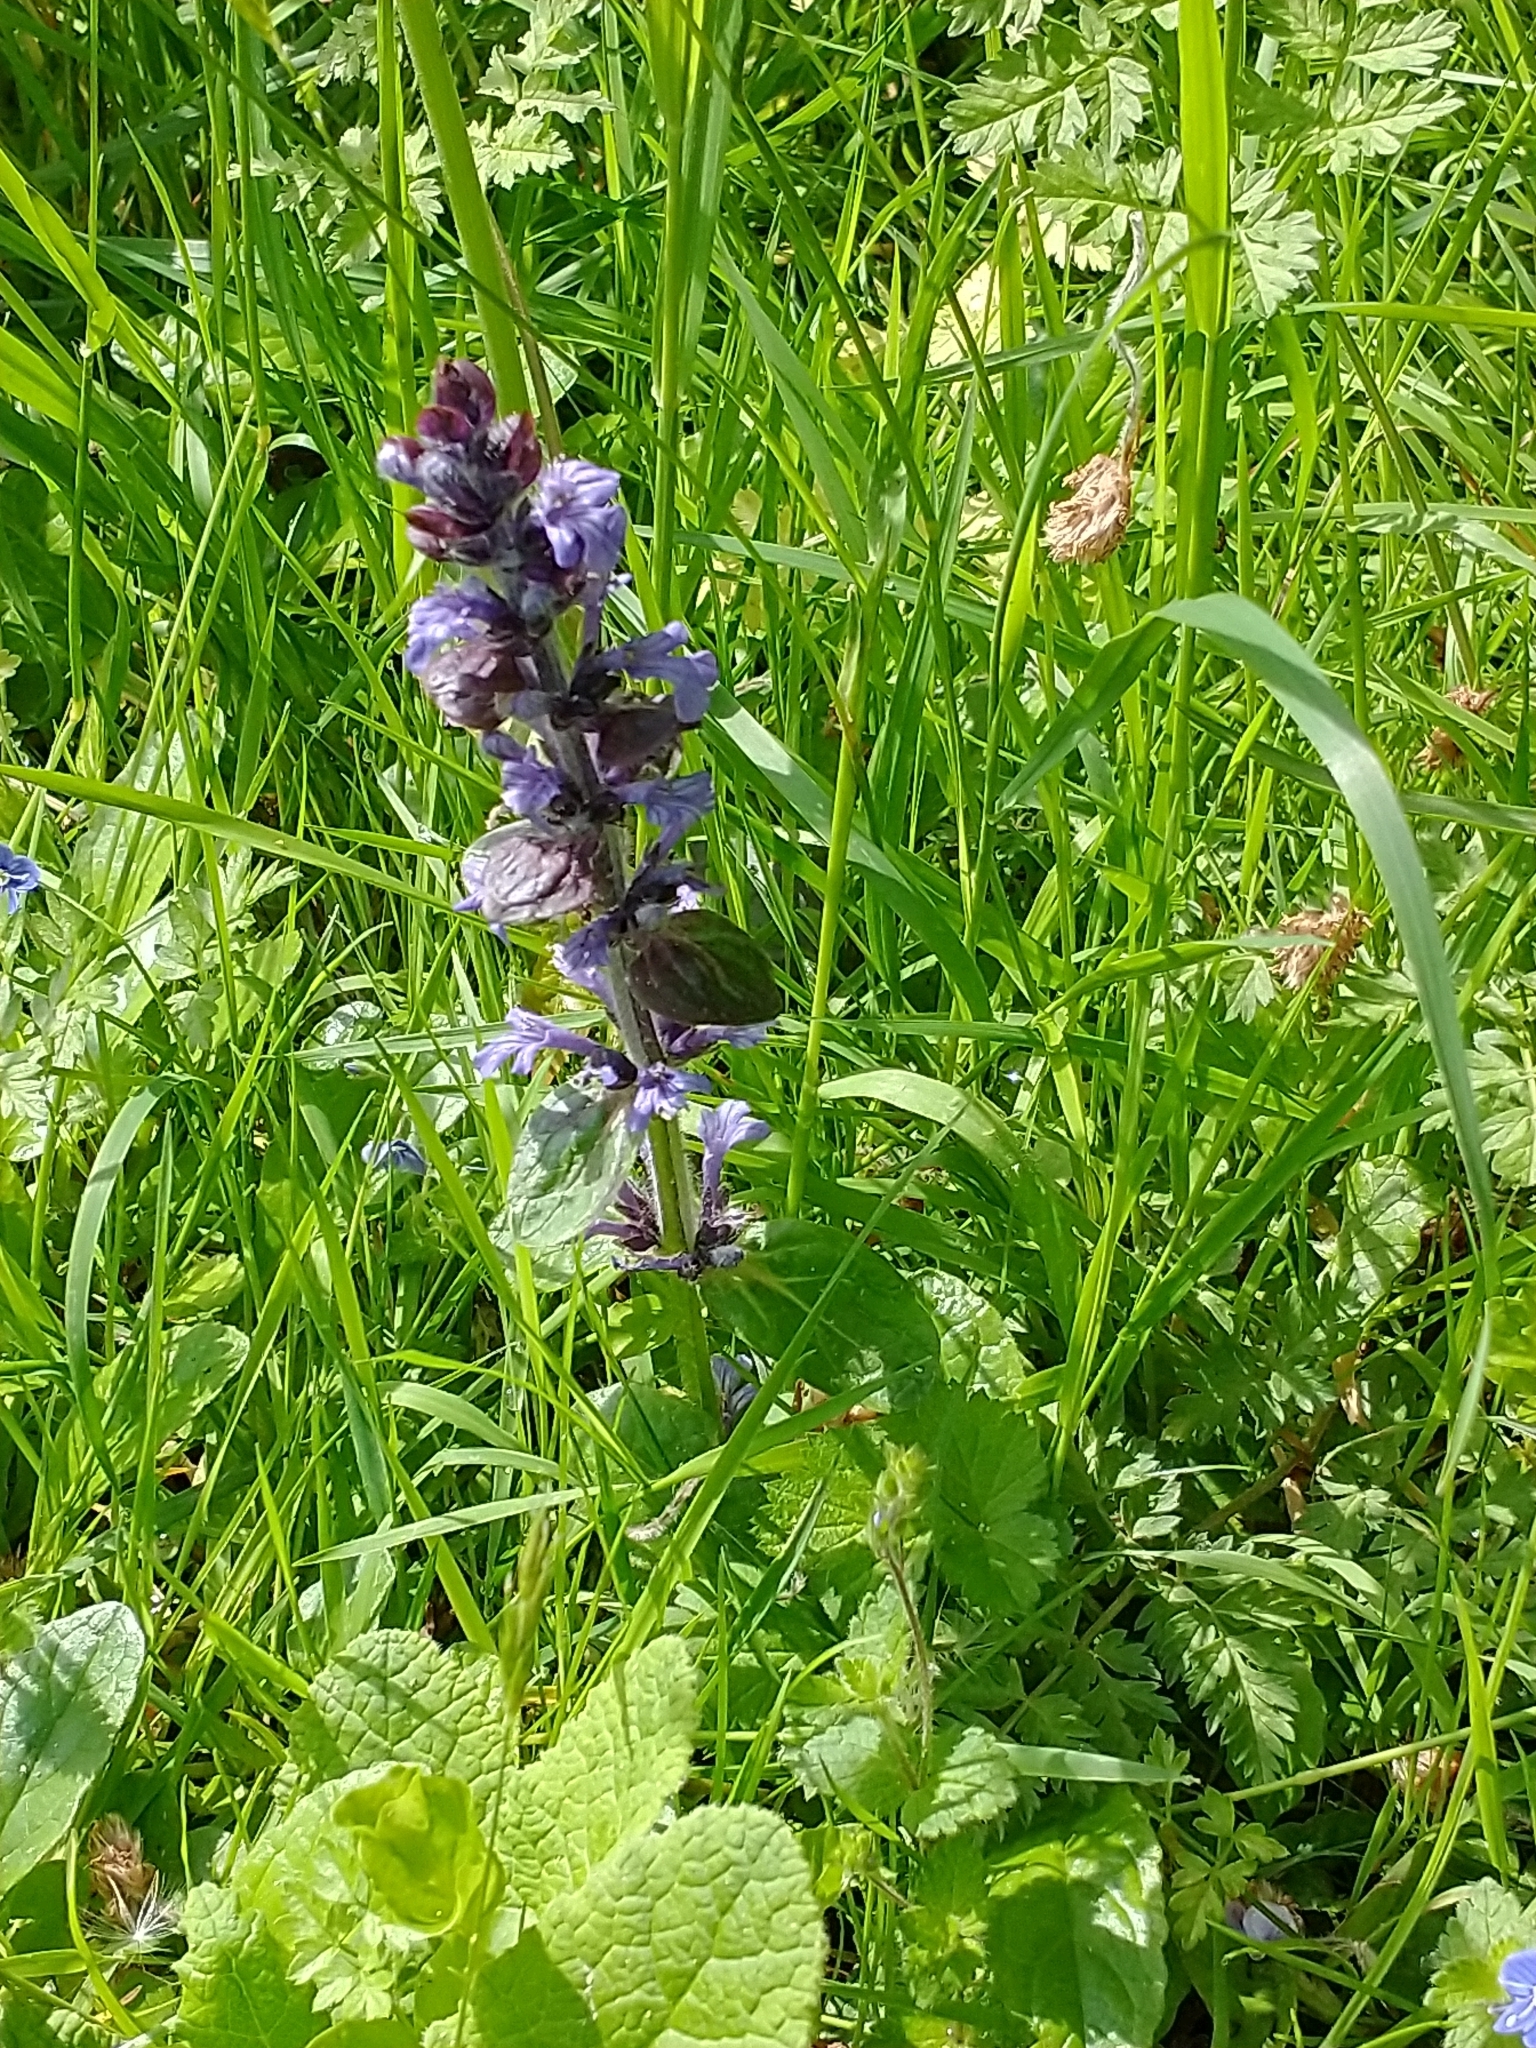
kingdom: Plantae
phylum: Tracheophyta
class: Magnoliopsida
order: Lamiales
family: Lamiaceae
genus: Ajuga
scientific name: Ajuga reptans
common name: Bugle
